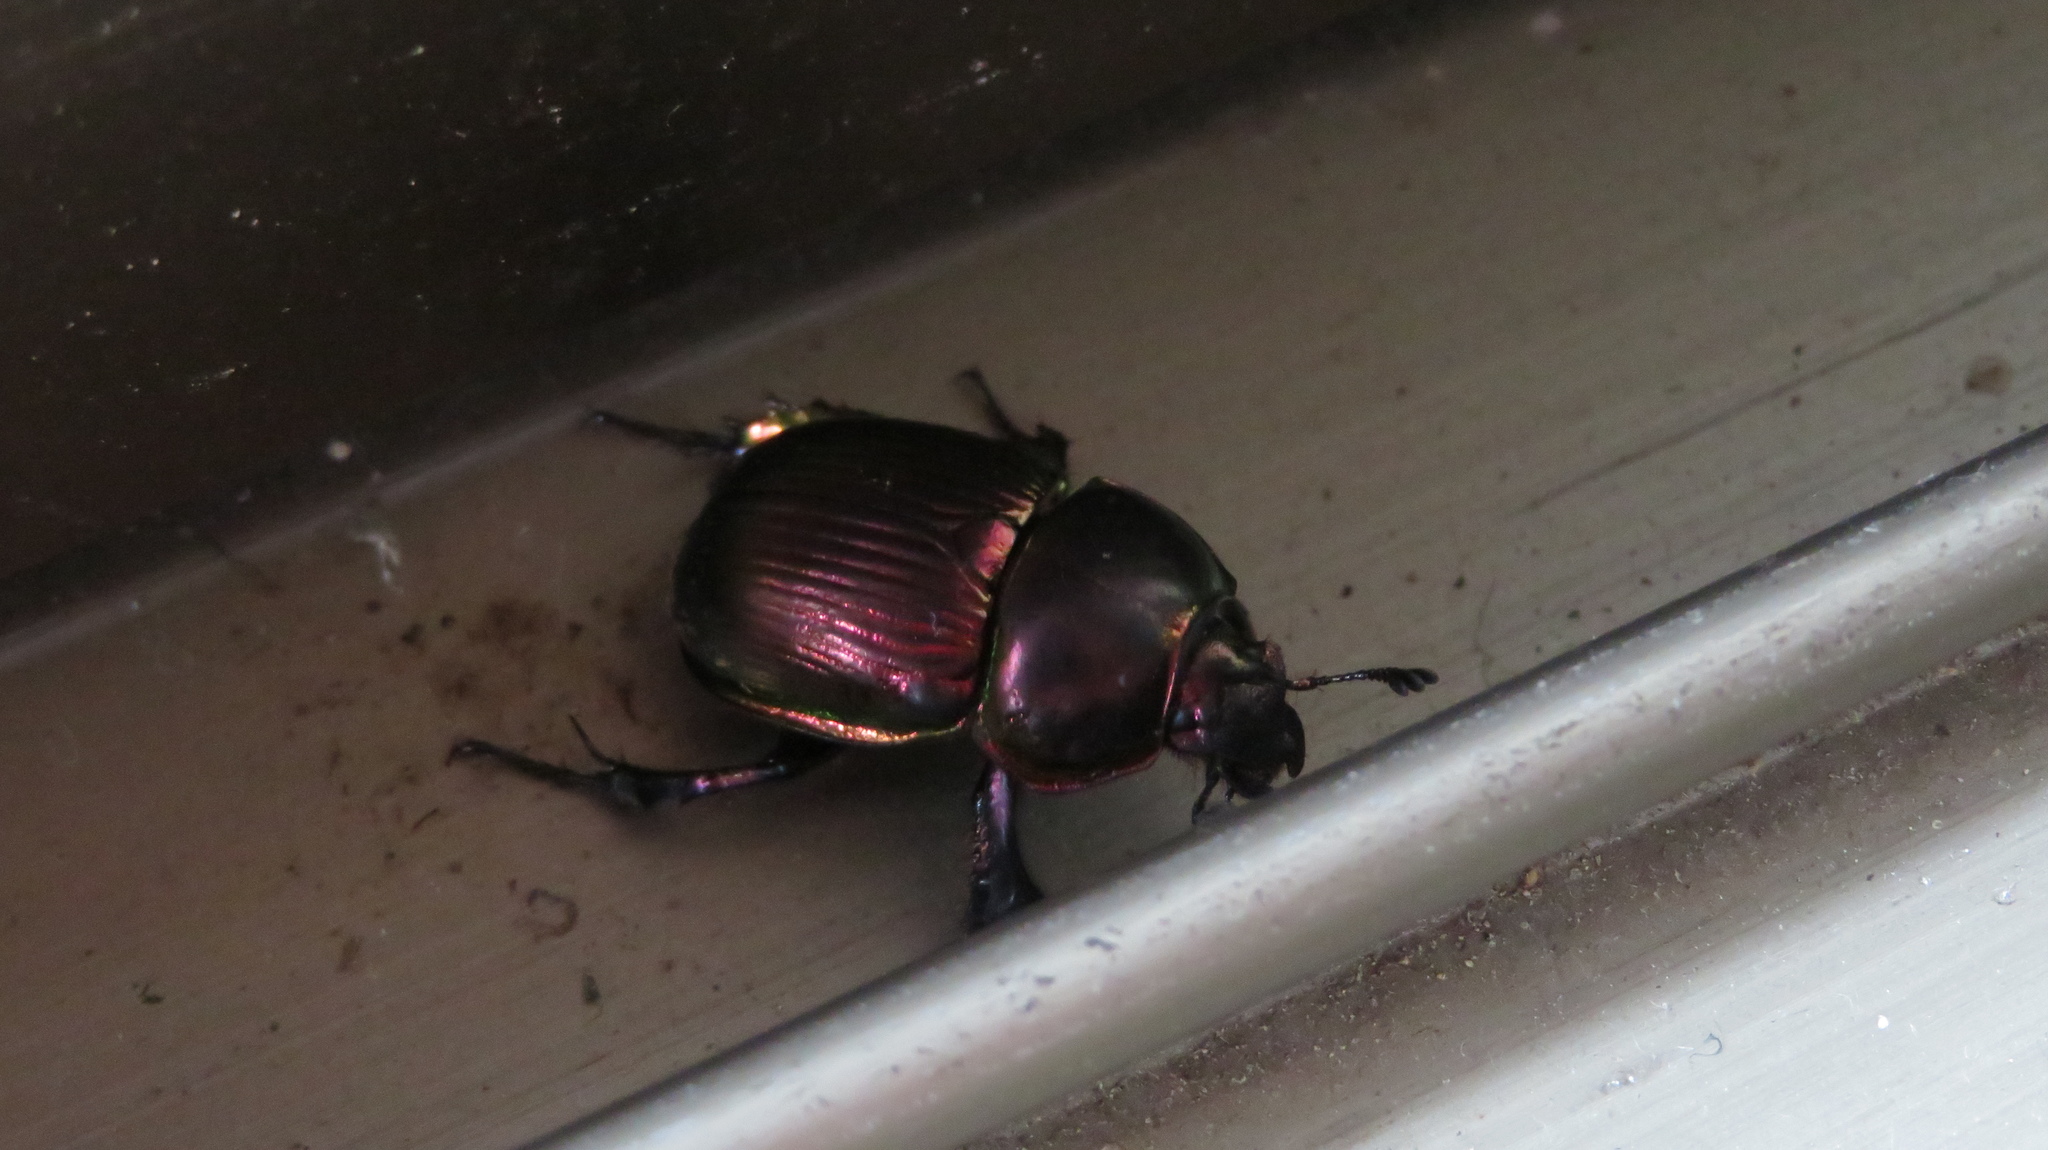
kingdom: Animalia
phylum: Arthropoda
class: Insecta
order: Coleoptera
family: Geotrupidae
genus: Phelotrupes
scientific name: Phelotrupes auratus
